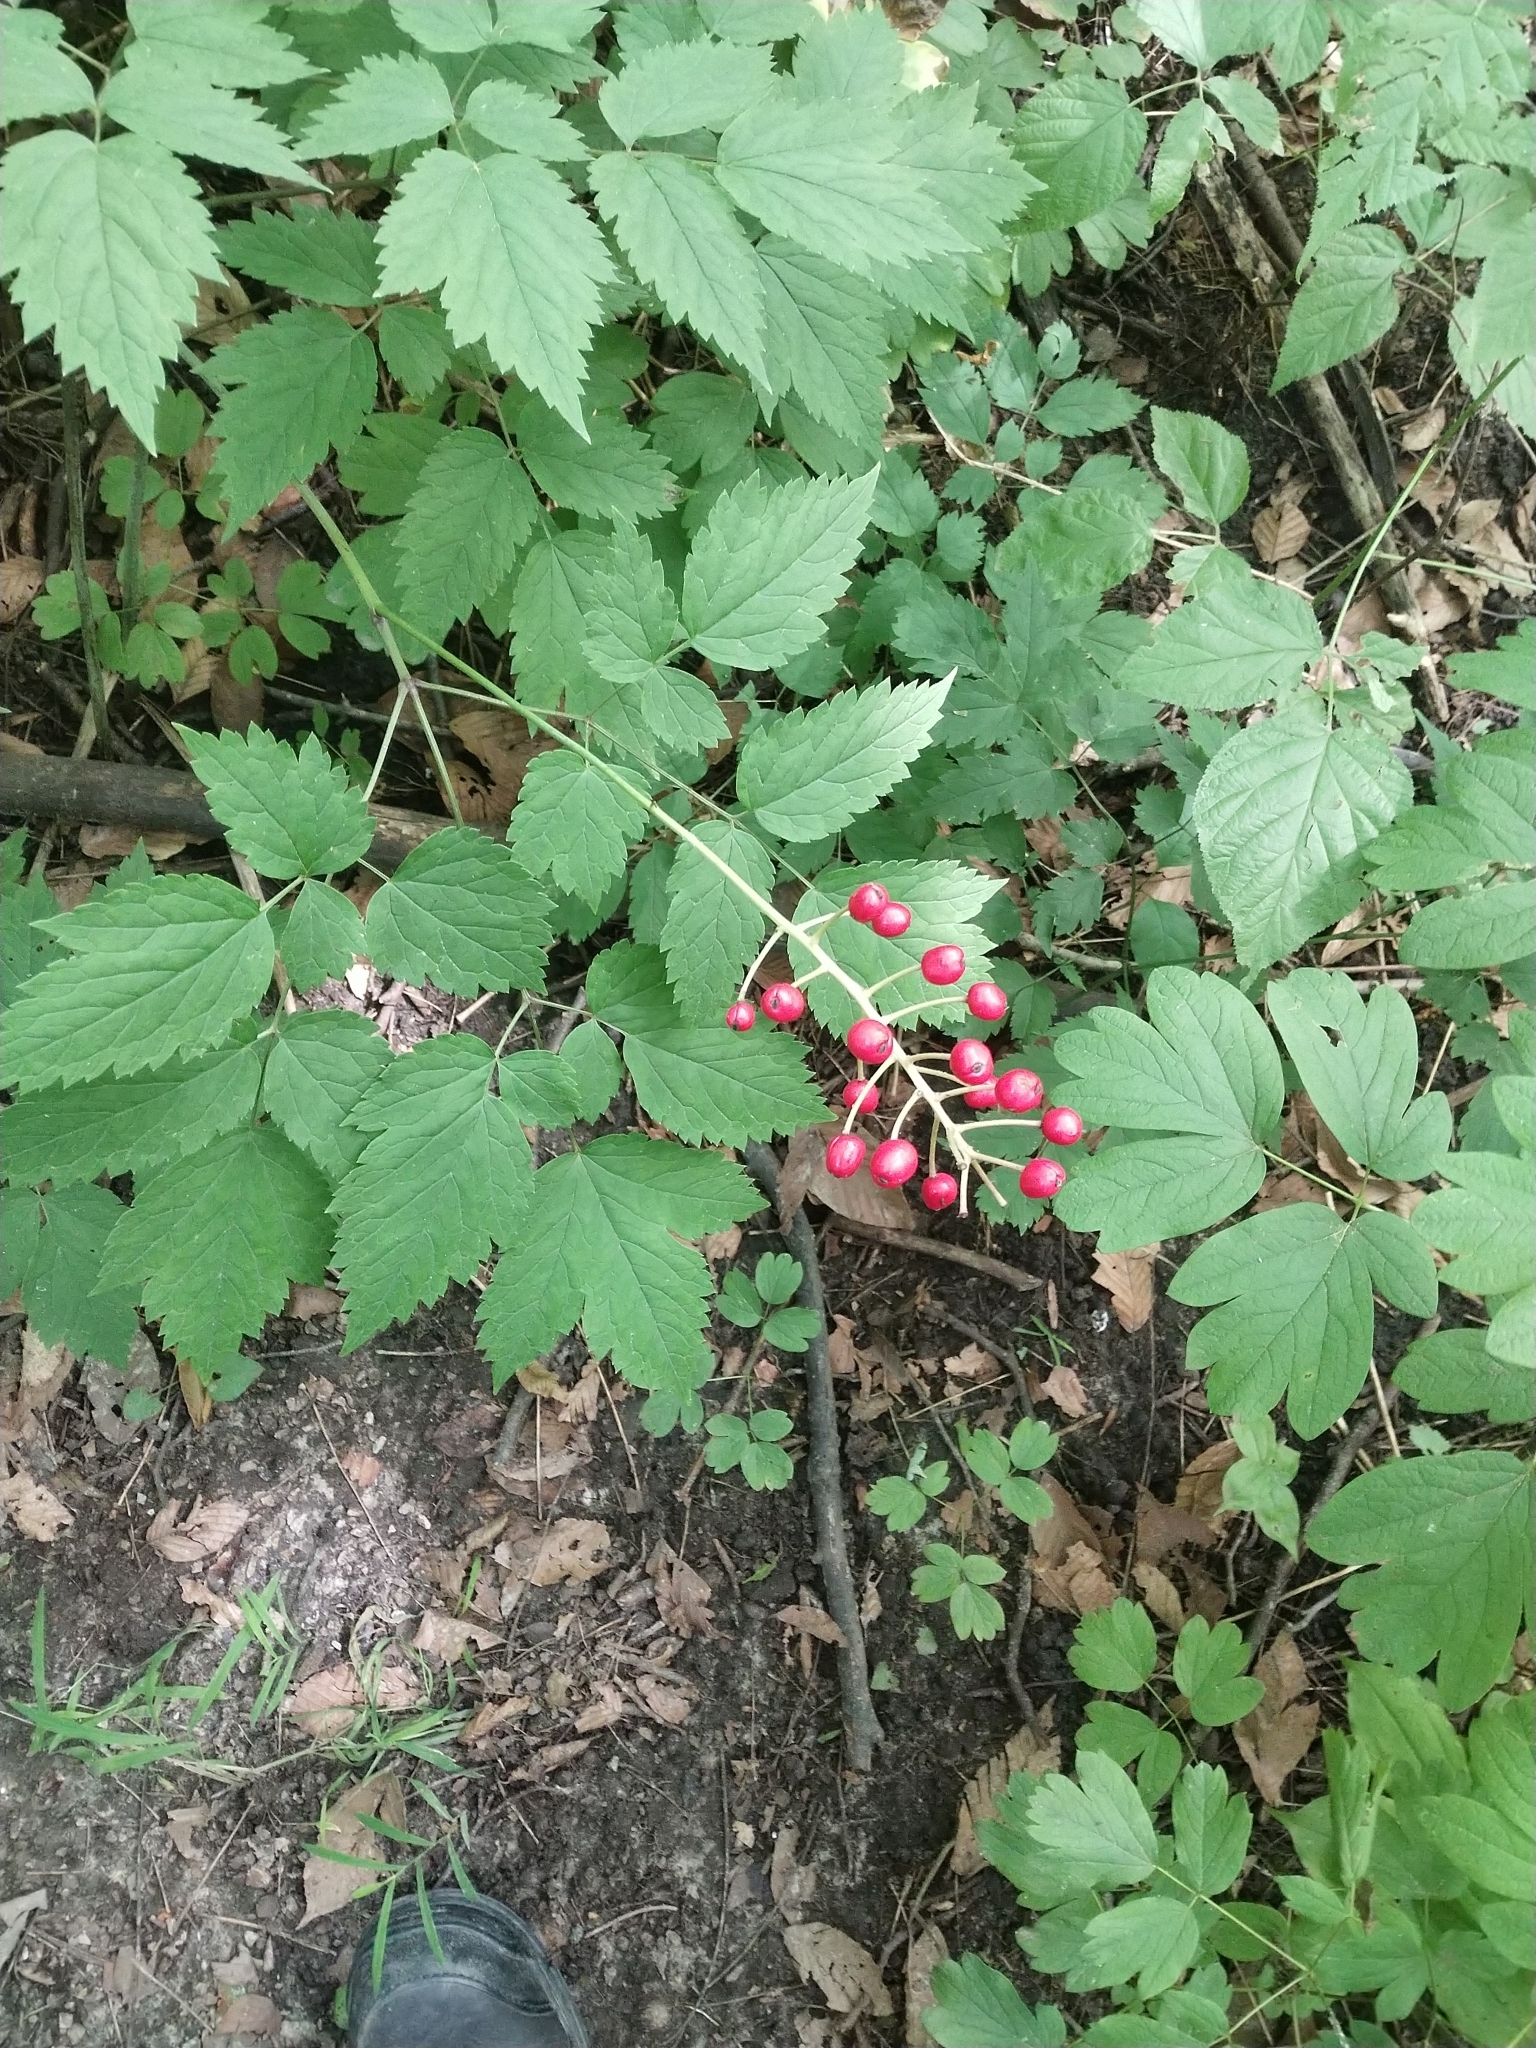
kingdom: Plantae
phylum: Tracheophyta
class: Magnoliopsida
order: Ranunculales
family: Ranunculaceae
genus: Actaea
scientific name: Actaea rubra
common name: Red baneberry
